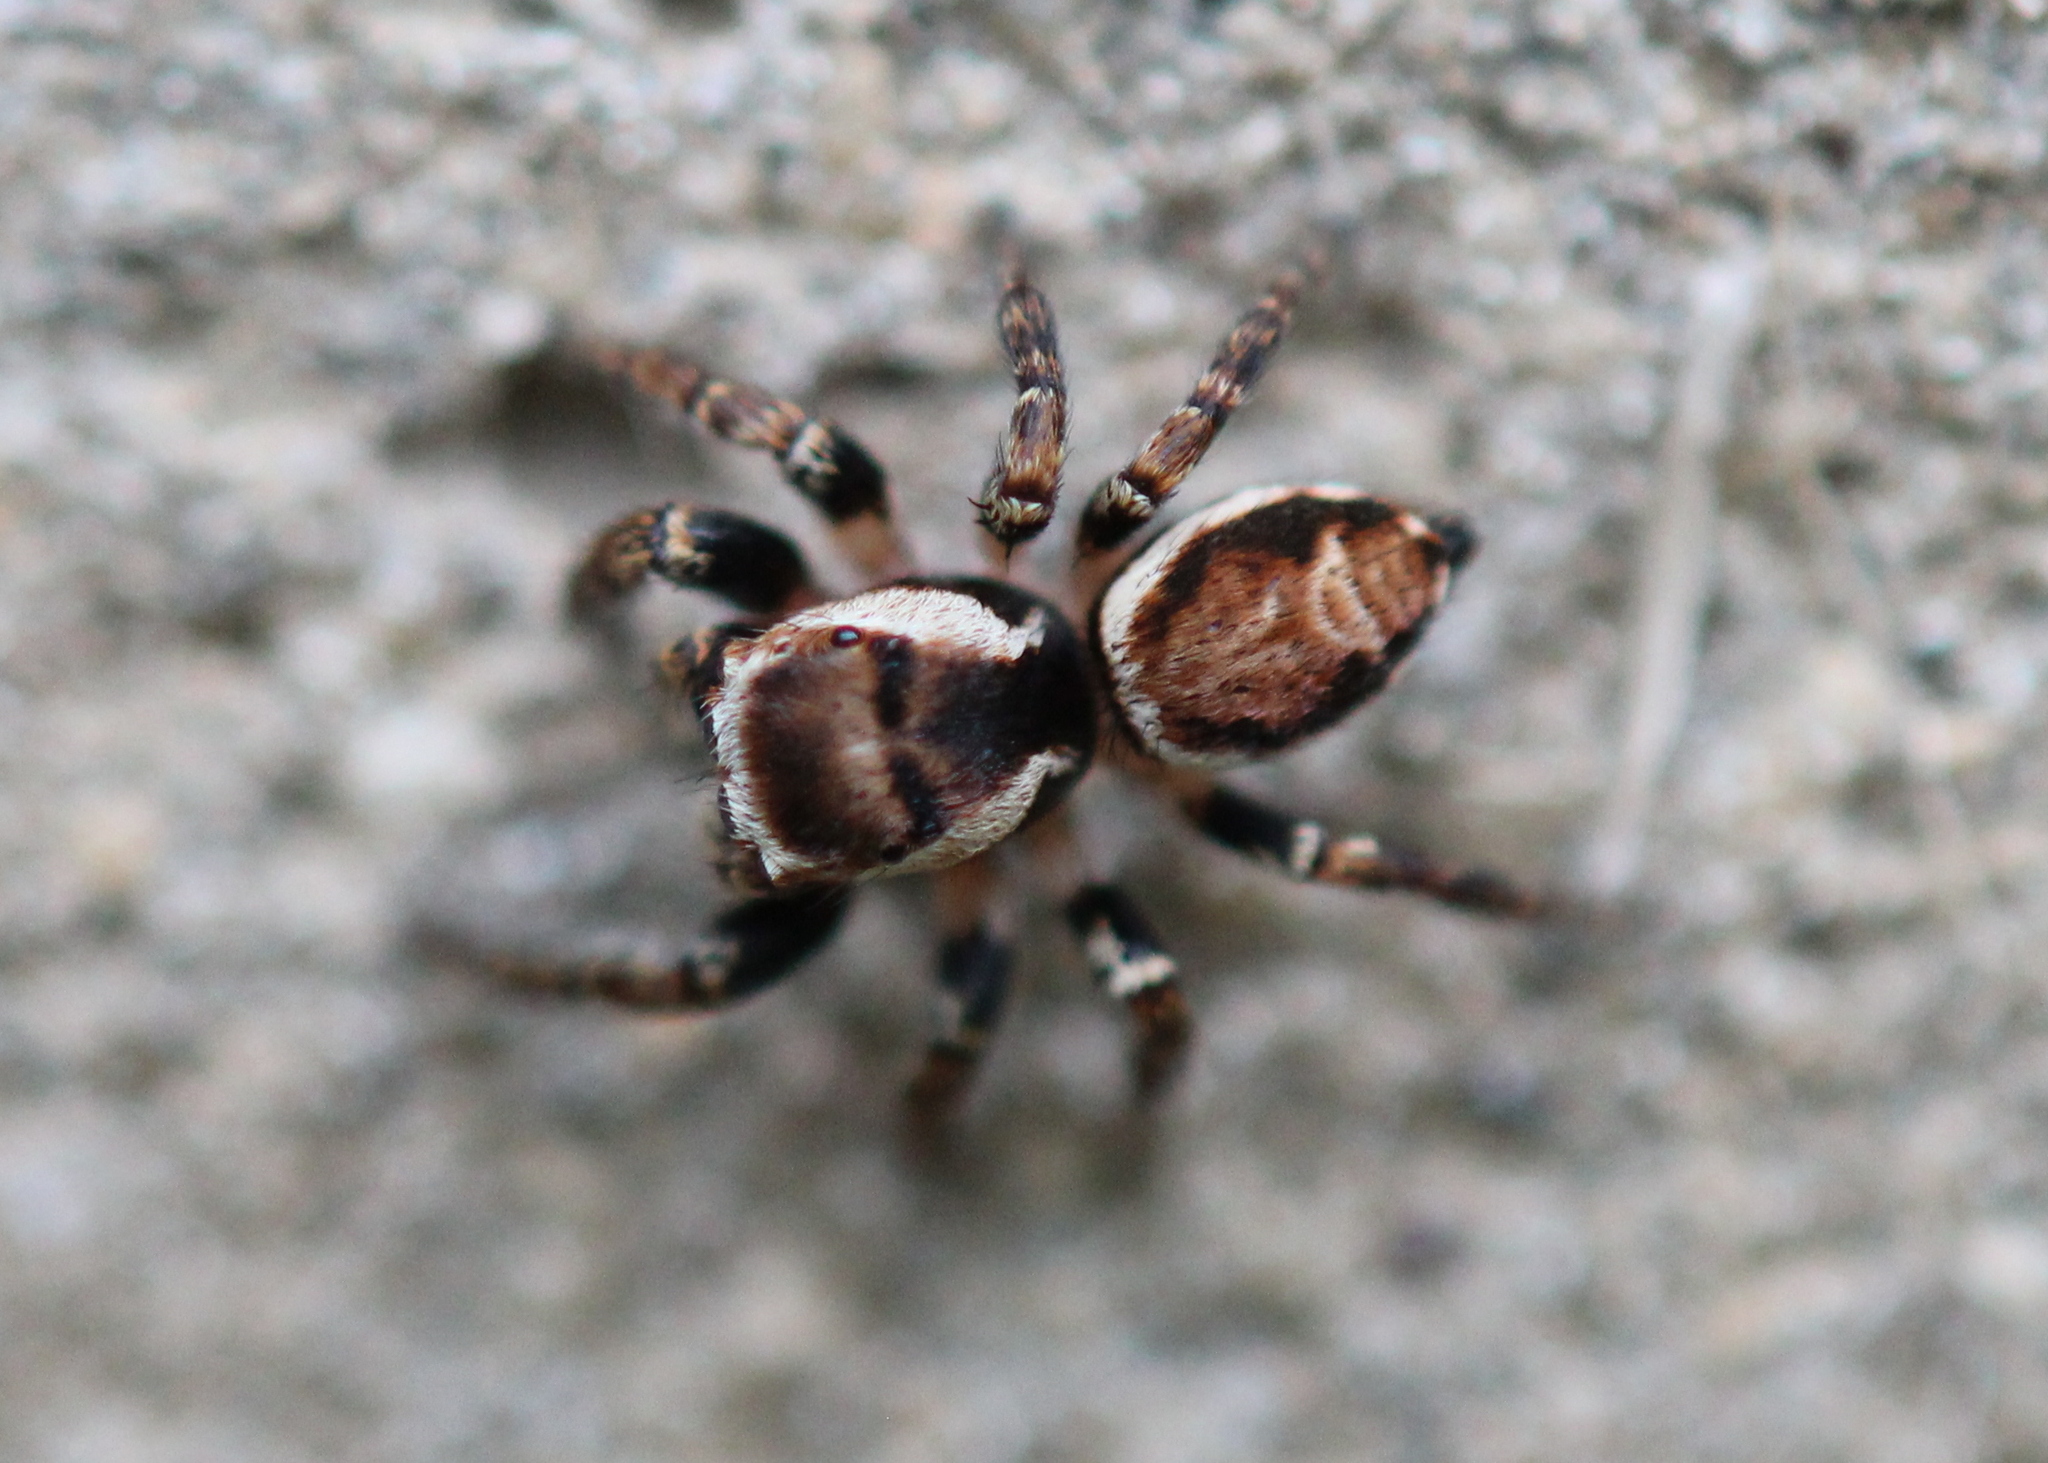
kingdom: Animalia
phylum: Arthropoda
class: Arachnida
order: Araneae
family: Salticidae
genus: Evarcha
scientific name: Evarcha hoyi
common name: Hoy's jumping spider
